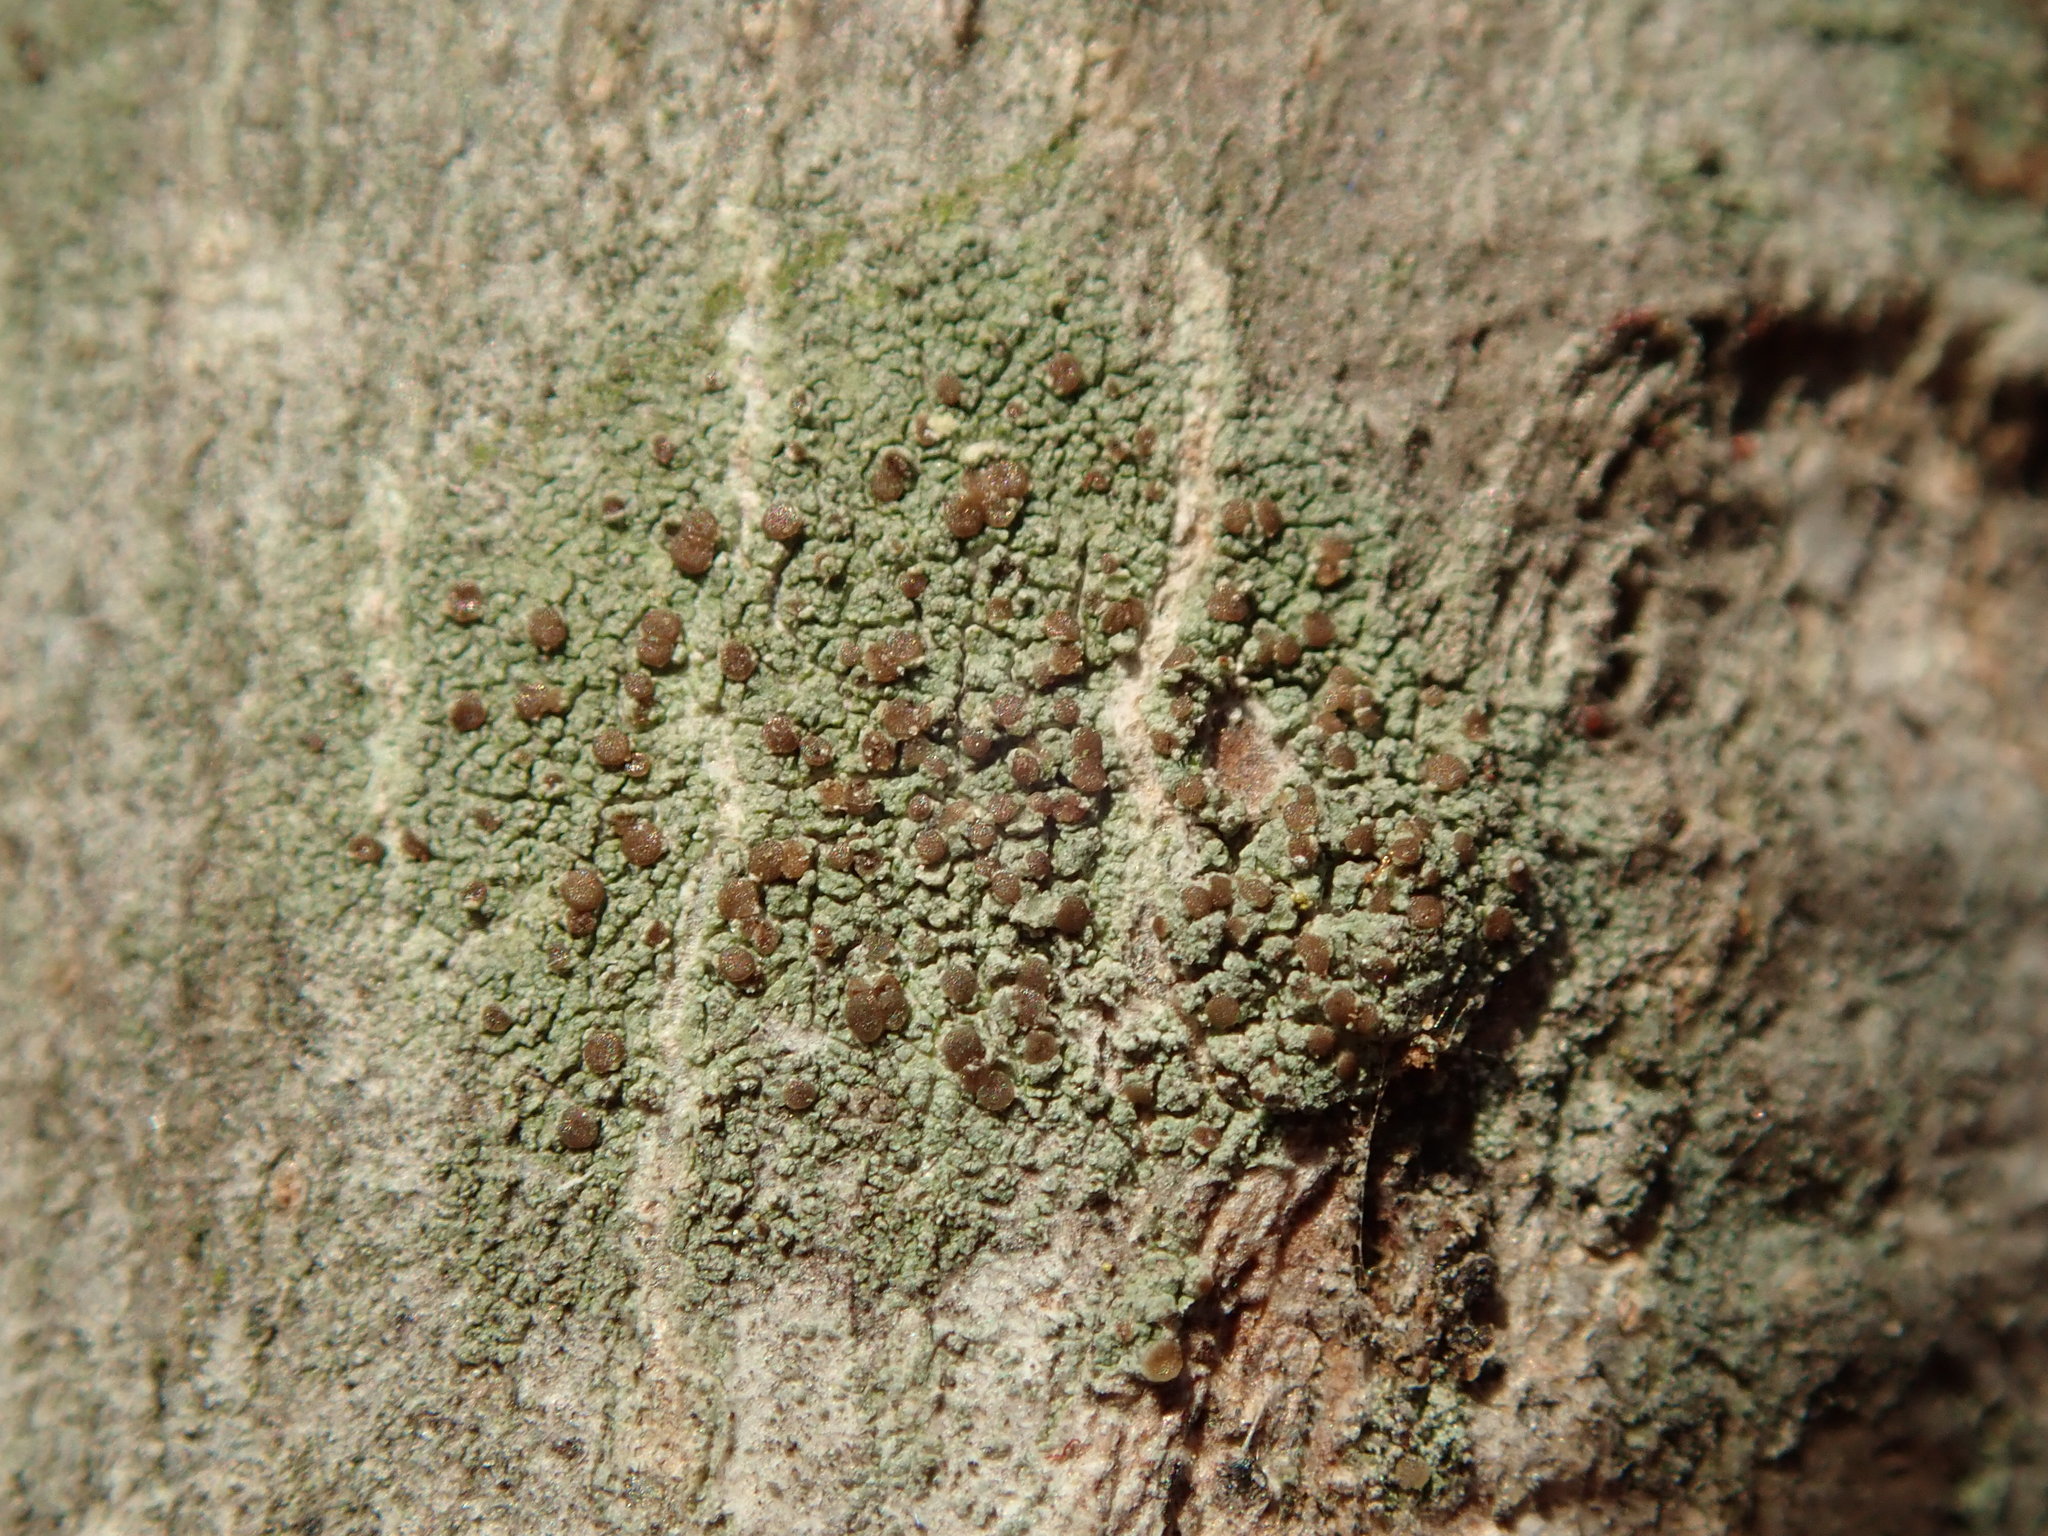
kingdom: Fungi
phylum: Ascomycota
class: Lecanoromycetes
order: Lecanorales
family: Lecanoraceae
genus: Traponora
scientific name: Traponora varians
